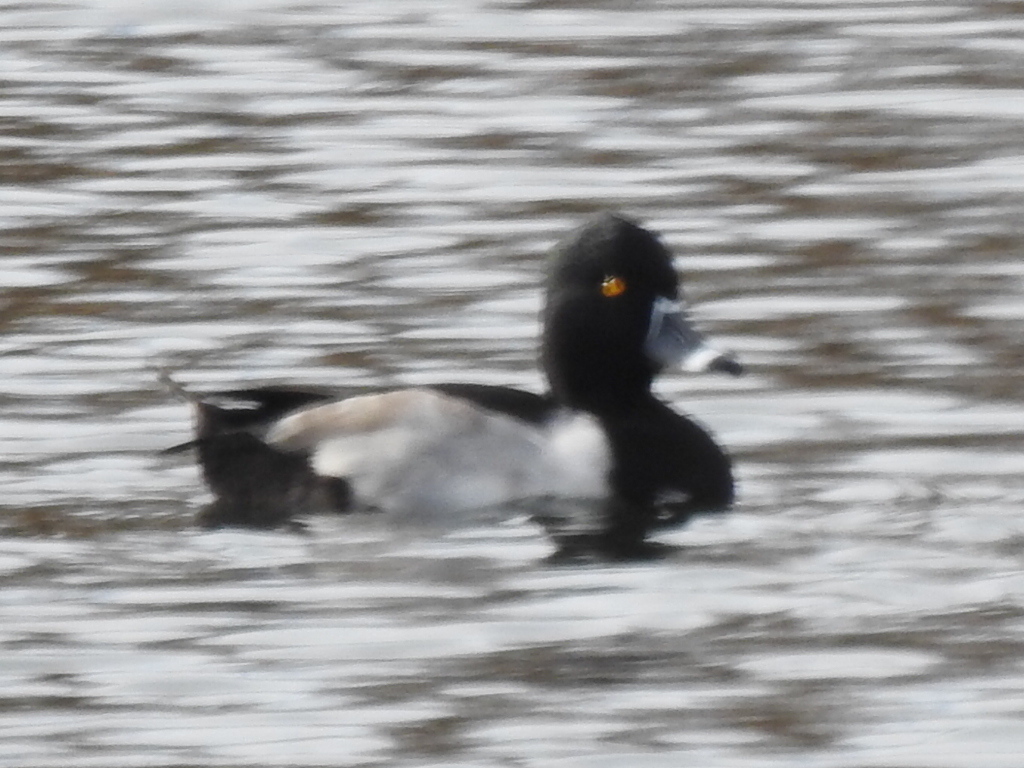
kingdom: Animalia
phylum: Chordata
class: Aves
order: Anseriformes
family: Anatidae
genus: Aythya
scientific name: Aythya collaris
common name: Ring-necked duck
